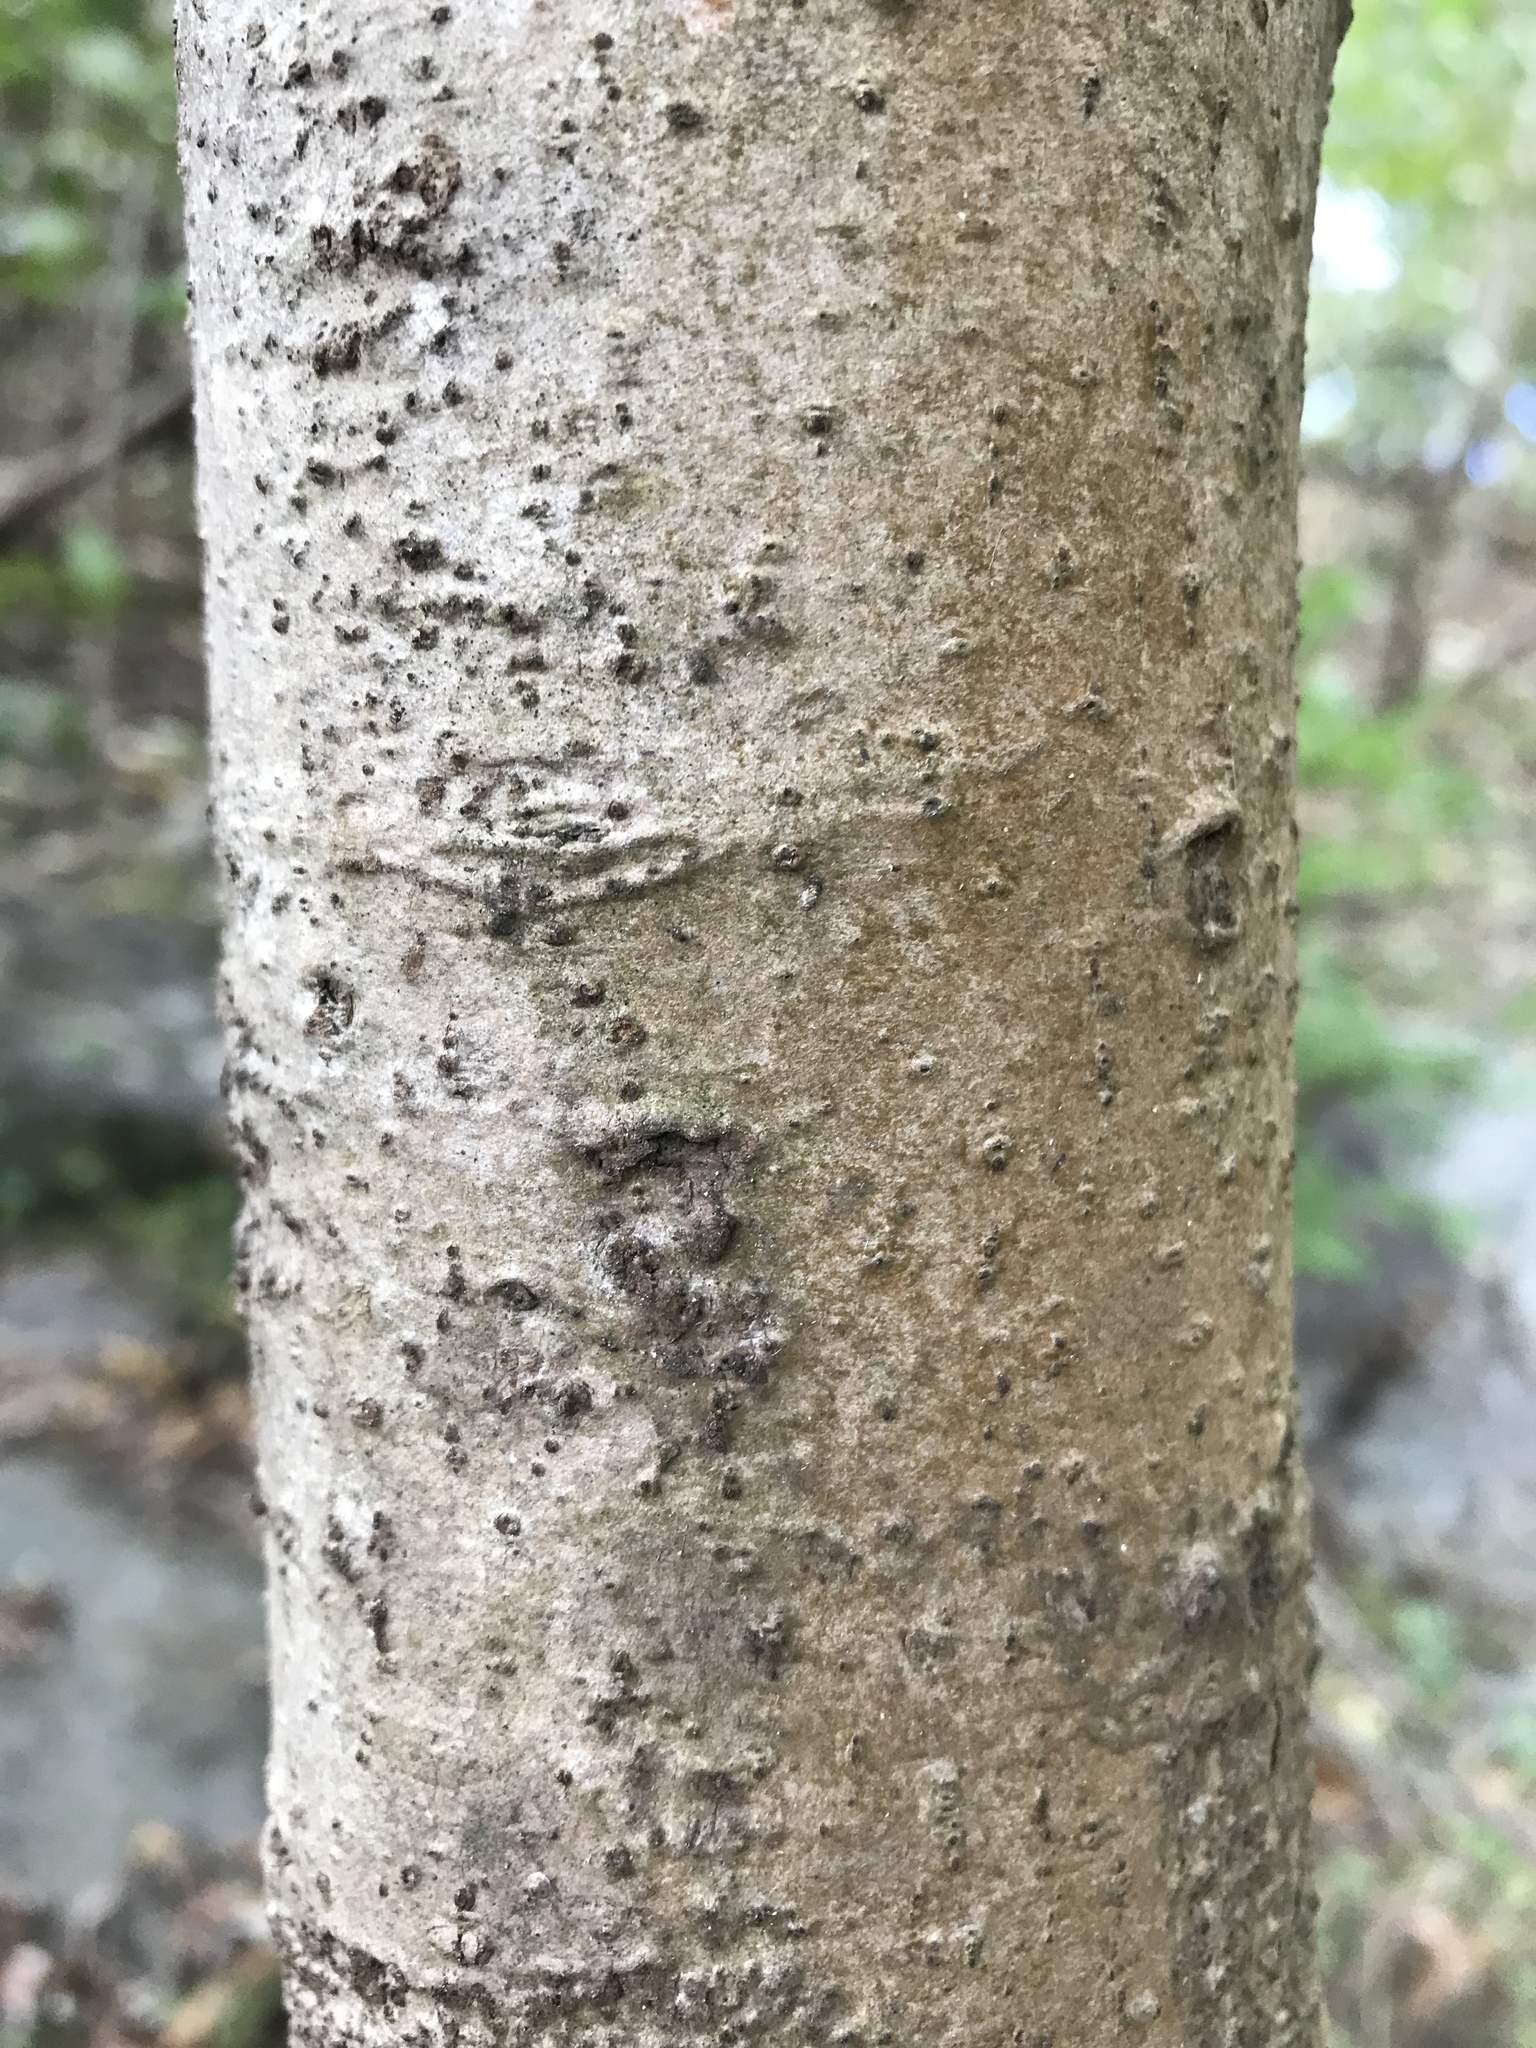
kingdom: Plantae
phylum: Tracheophyta
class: Magnoliopsida
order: Magnoliales
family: Annonaceae
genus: Asimina
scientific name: Asimina triloba
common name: Dog-banana
